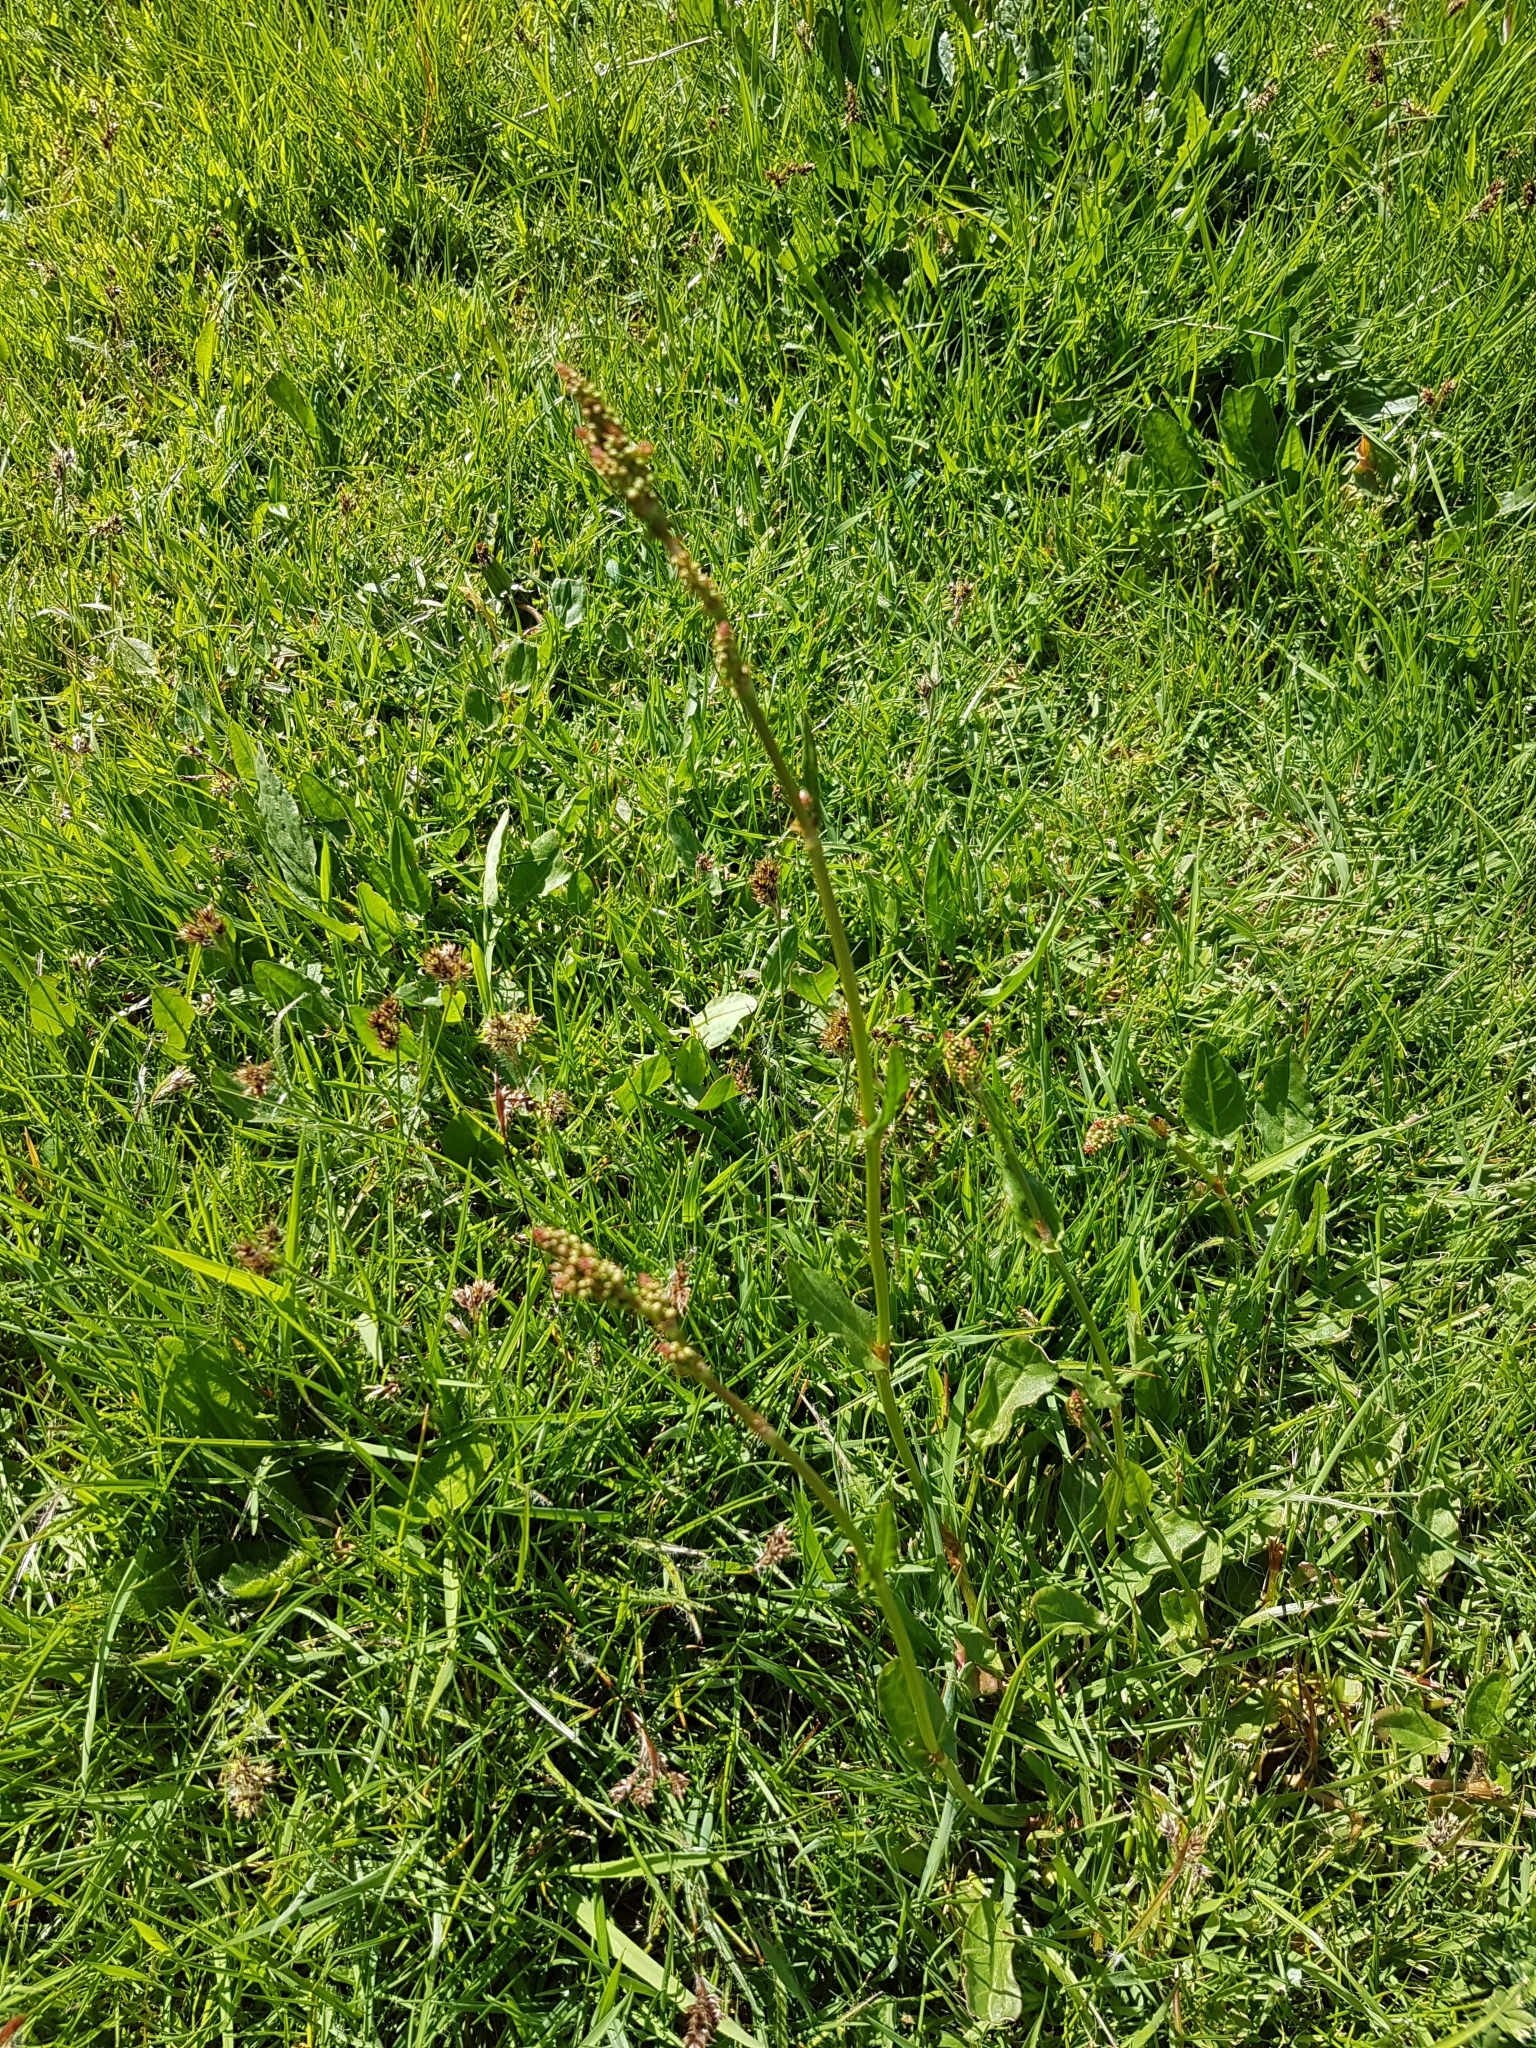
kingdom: Plantae
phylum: Tracheophyta
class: Magnoliopsida
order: Caryophyllales
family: Polygonaceae
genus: Rumex
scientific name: Rumex acetosa
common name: Garden sorrel
